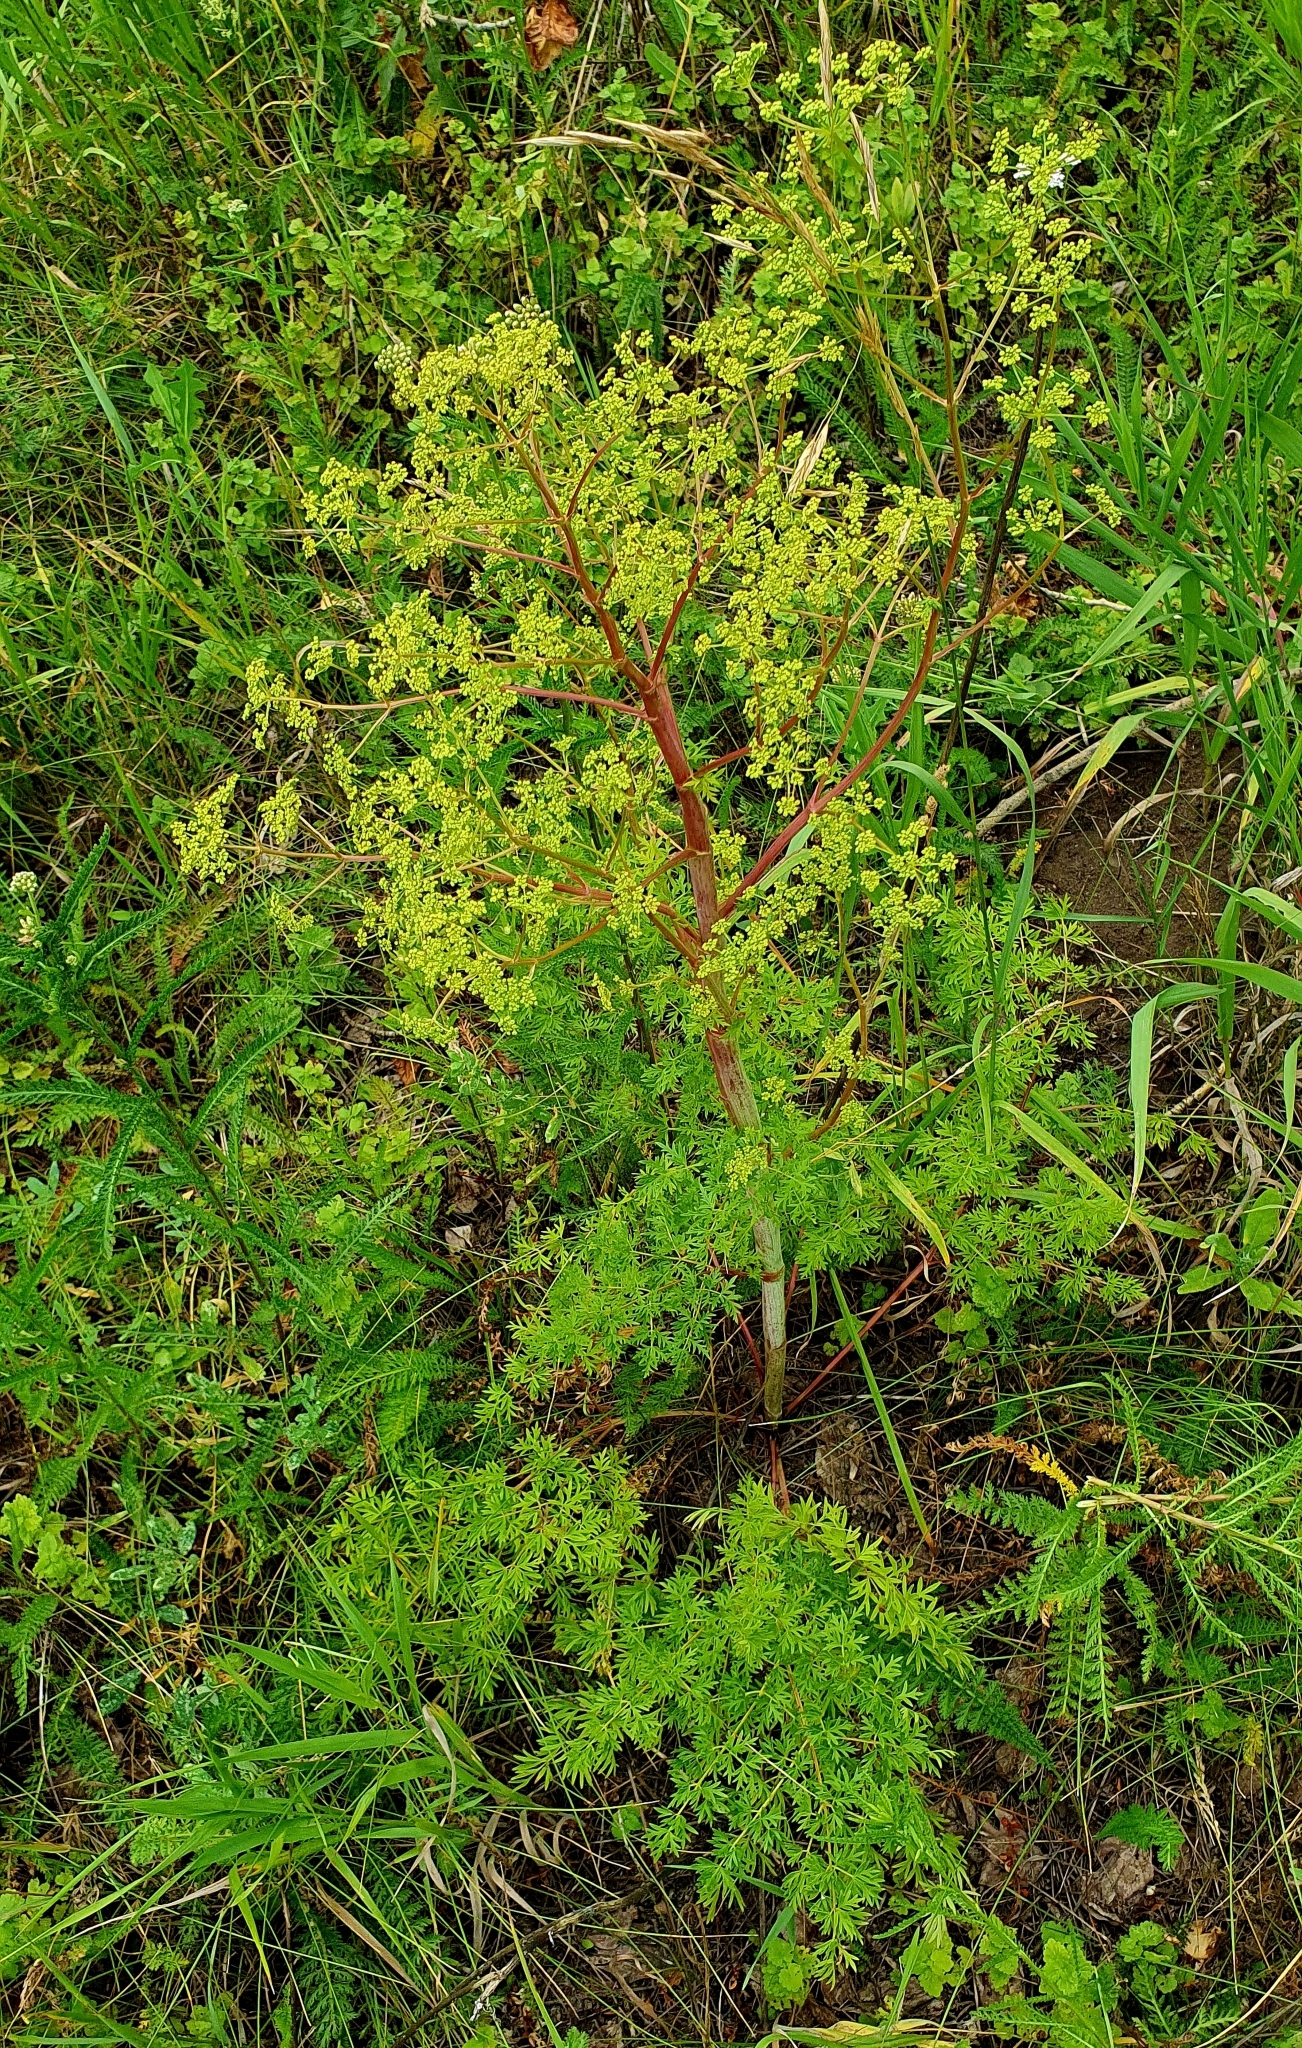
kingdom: Plantae
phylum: Tracheophyta
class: Magnoliopsida
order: Apiales
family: Apiaceae
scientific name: Apiaceae
